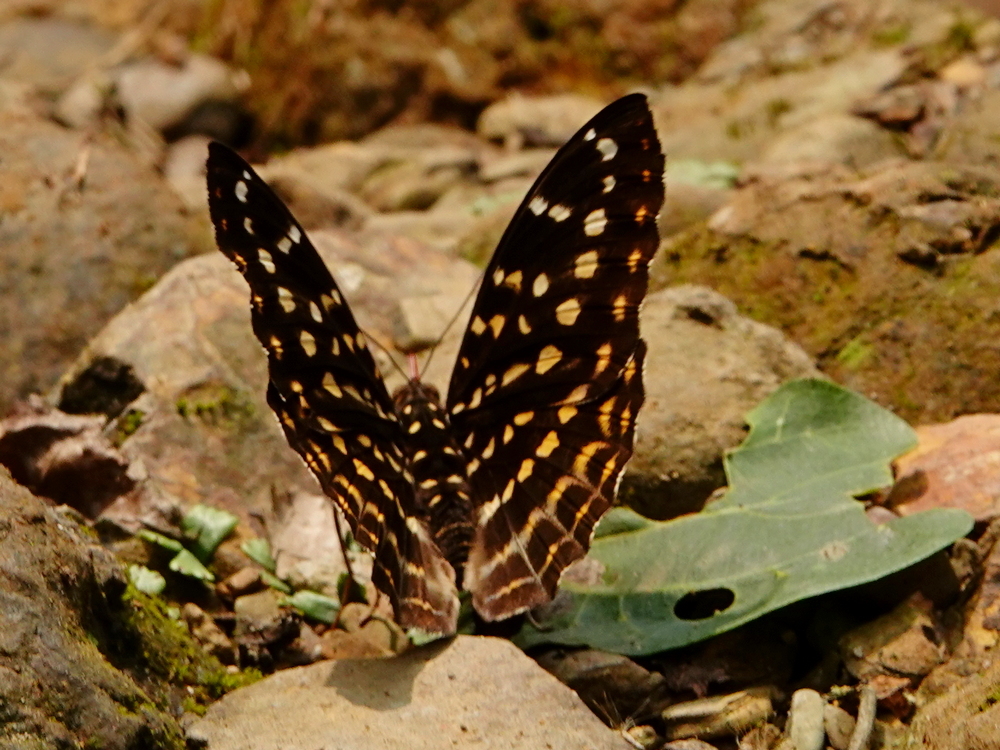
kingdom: Animalia
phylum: Arthropoda
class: Insecta
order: Lepidoptera
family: Nymphalidae
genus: Lexias
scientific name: Lexias pardalis
